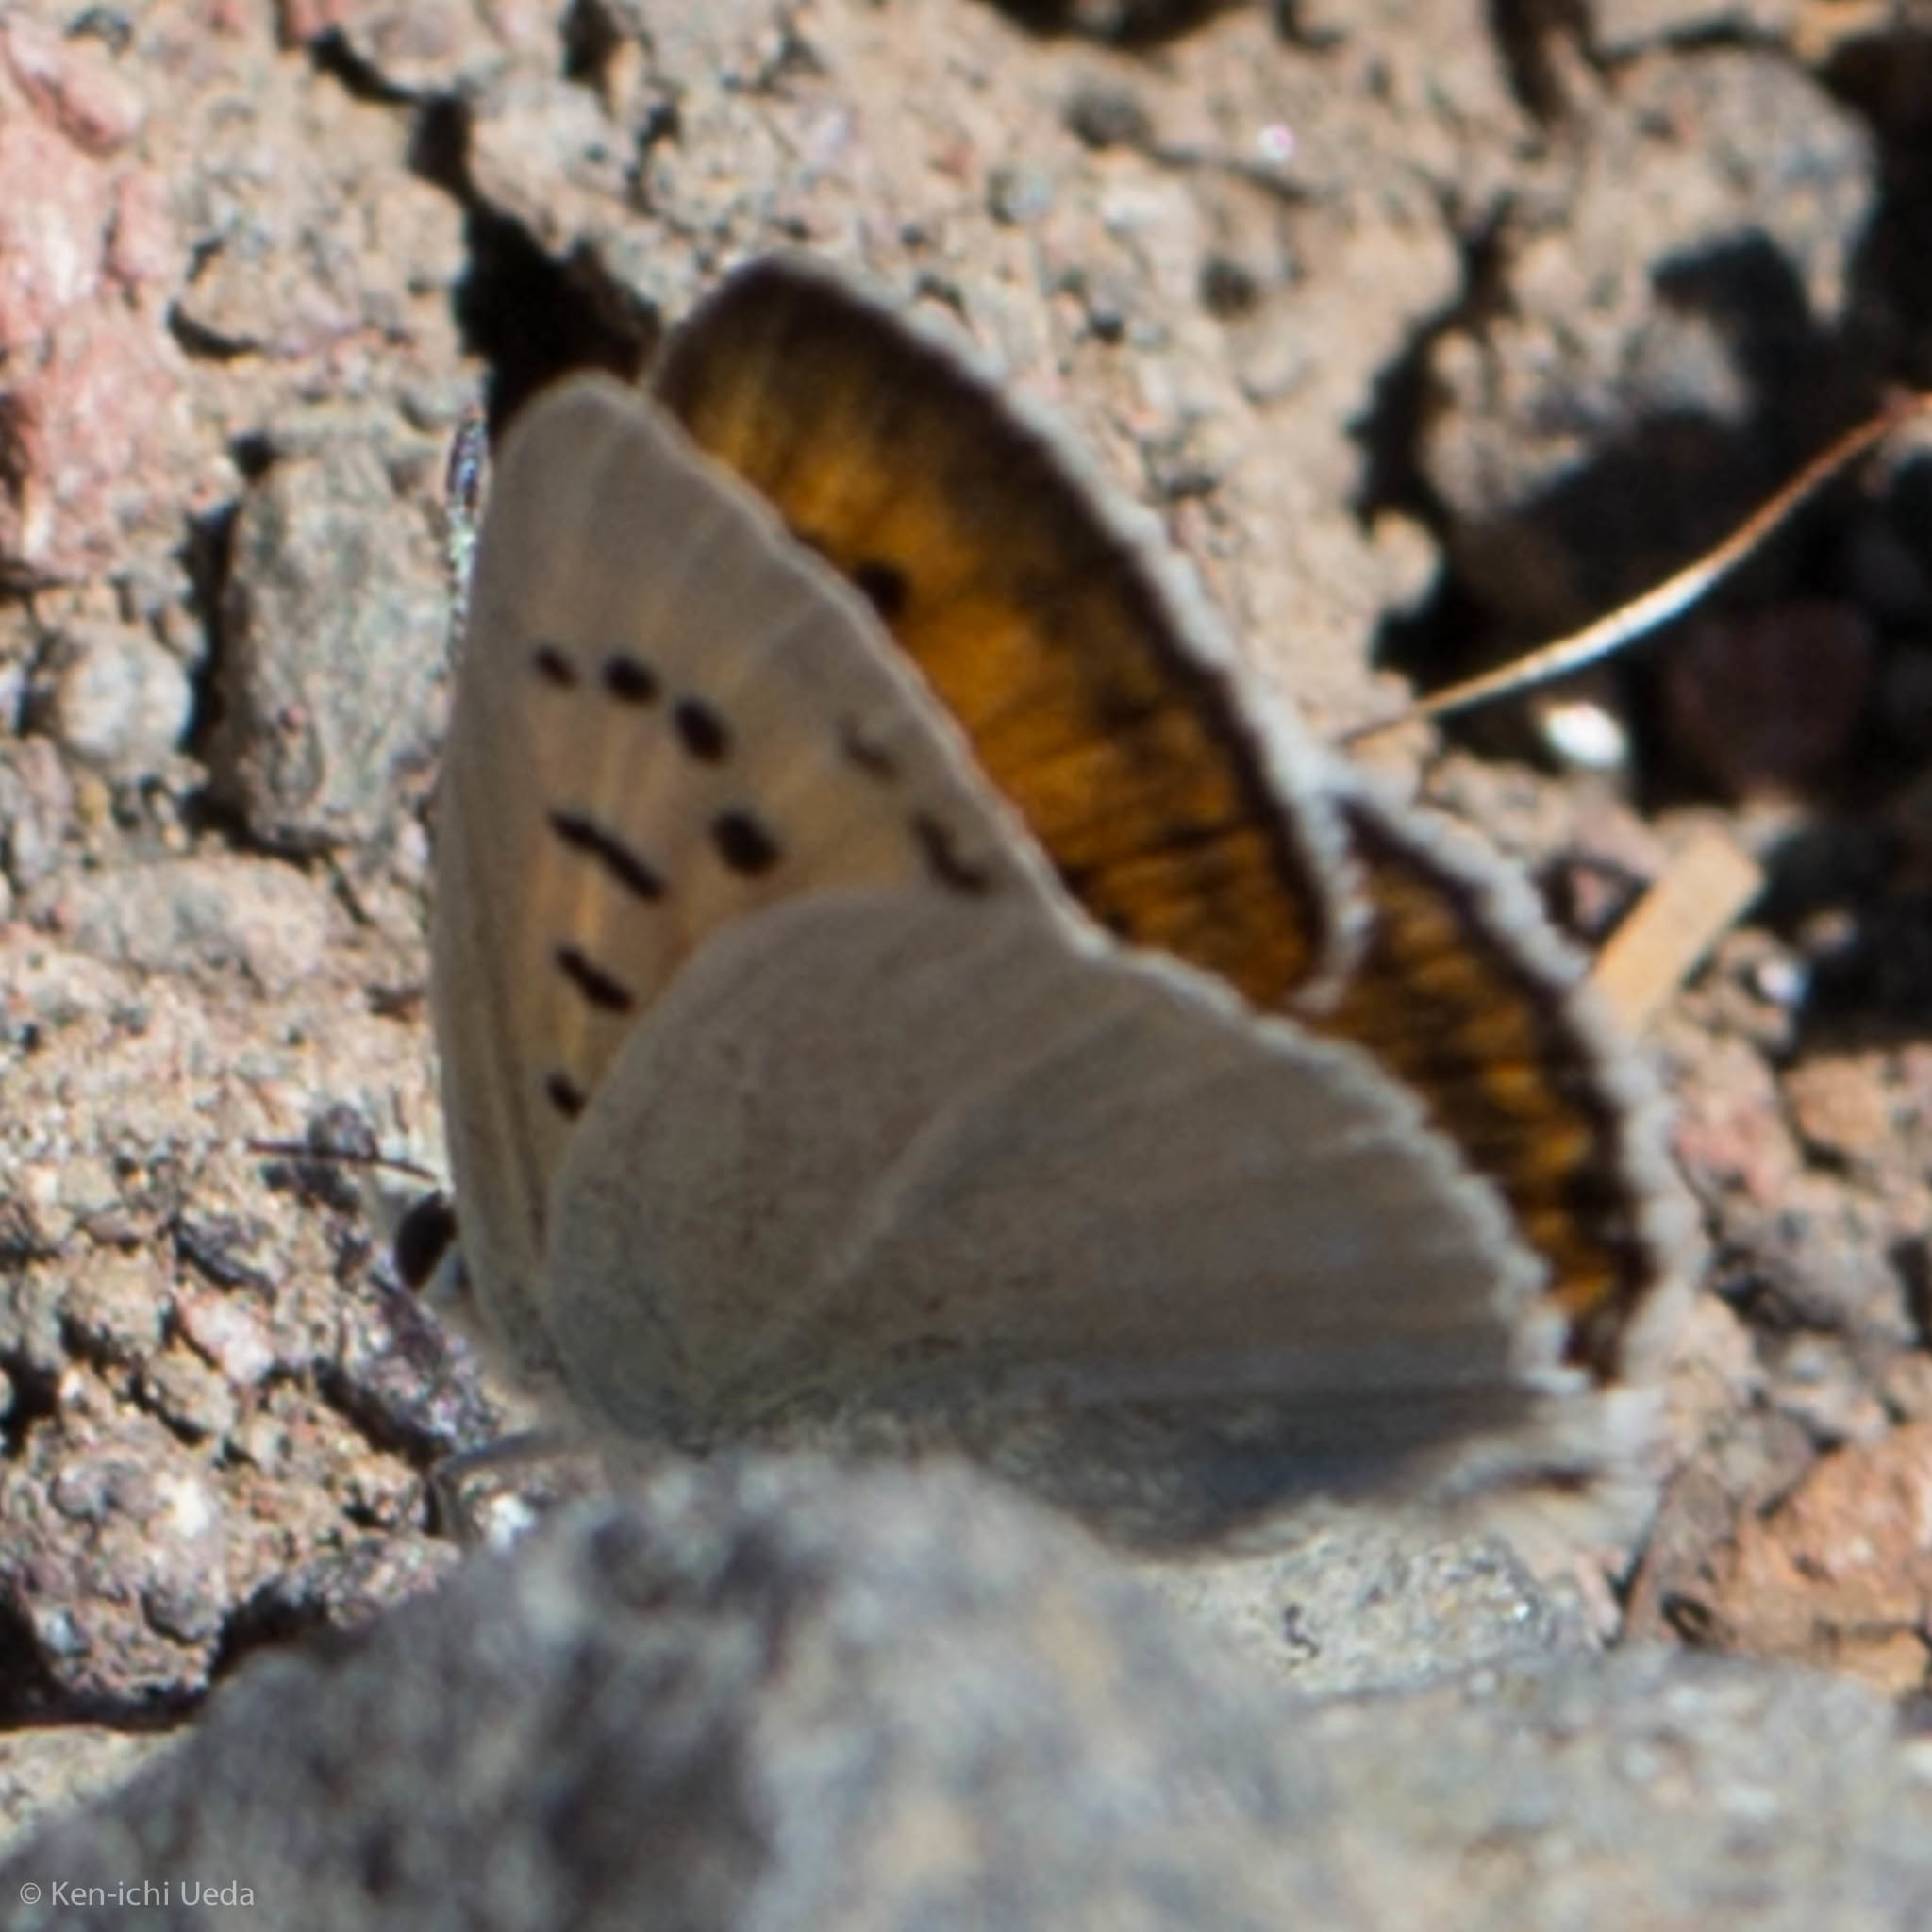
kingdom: Animalia
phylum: Arthropoda
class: Insecta
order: Lepidoptera
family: Lycaenidae
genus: Tharsalea
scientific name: Tharsalea rubidus
